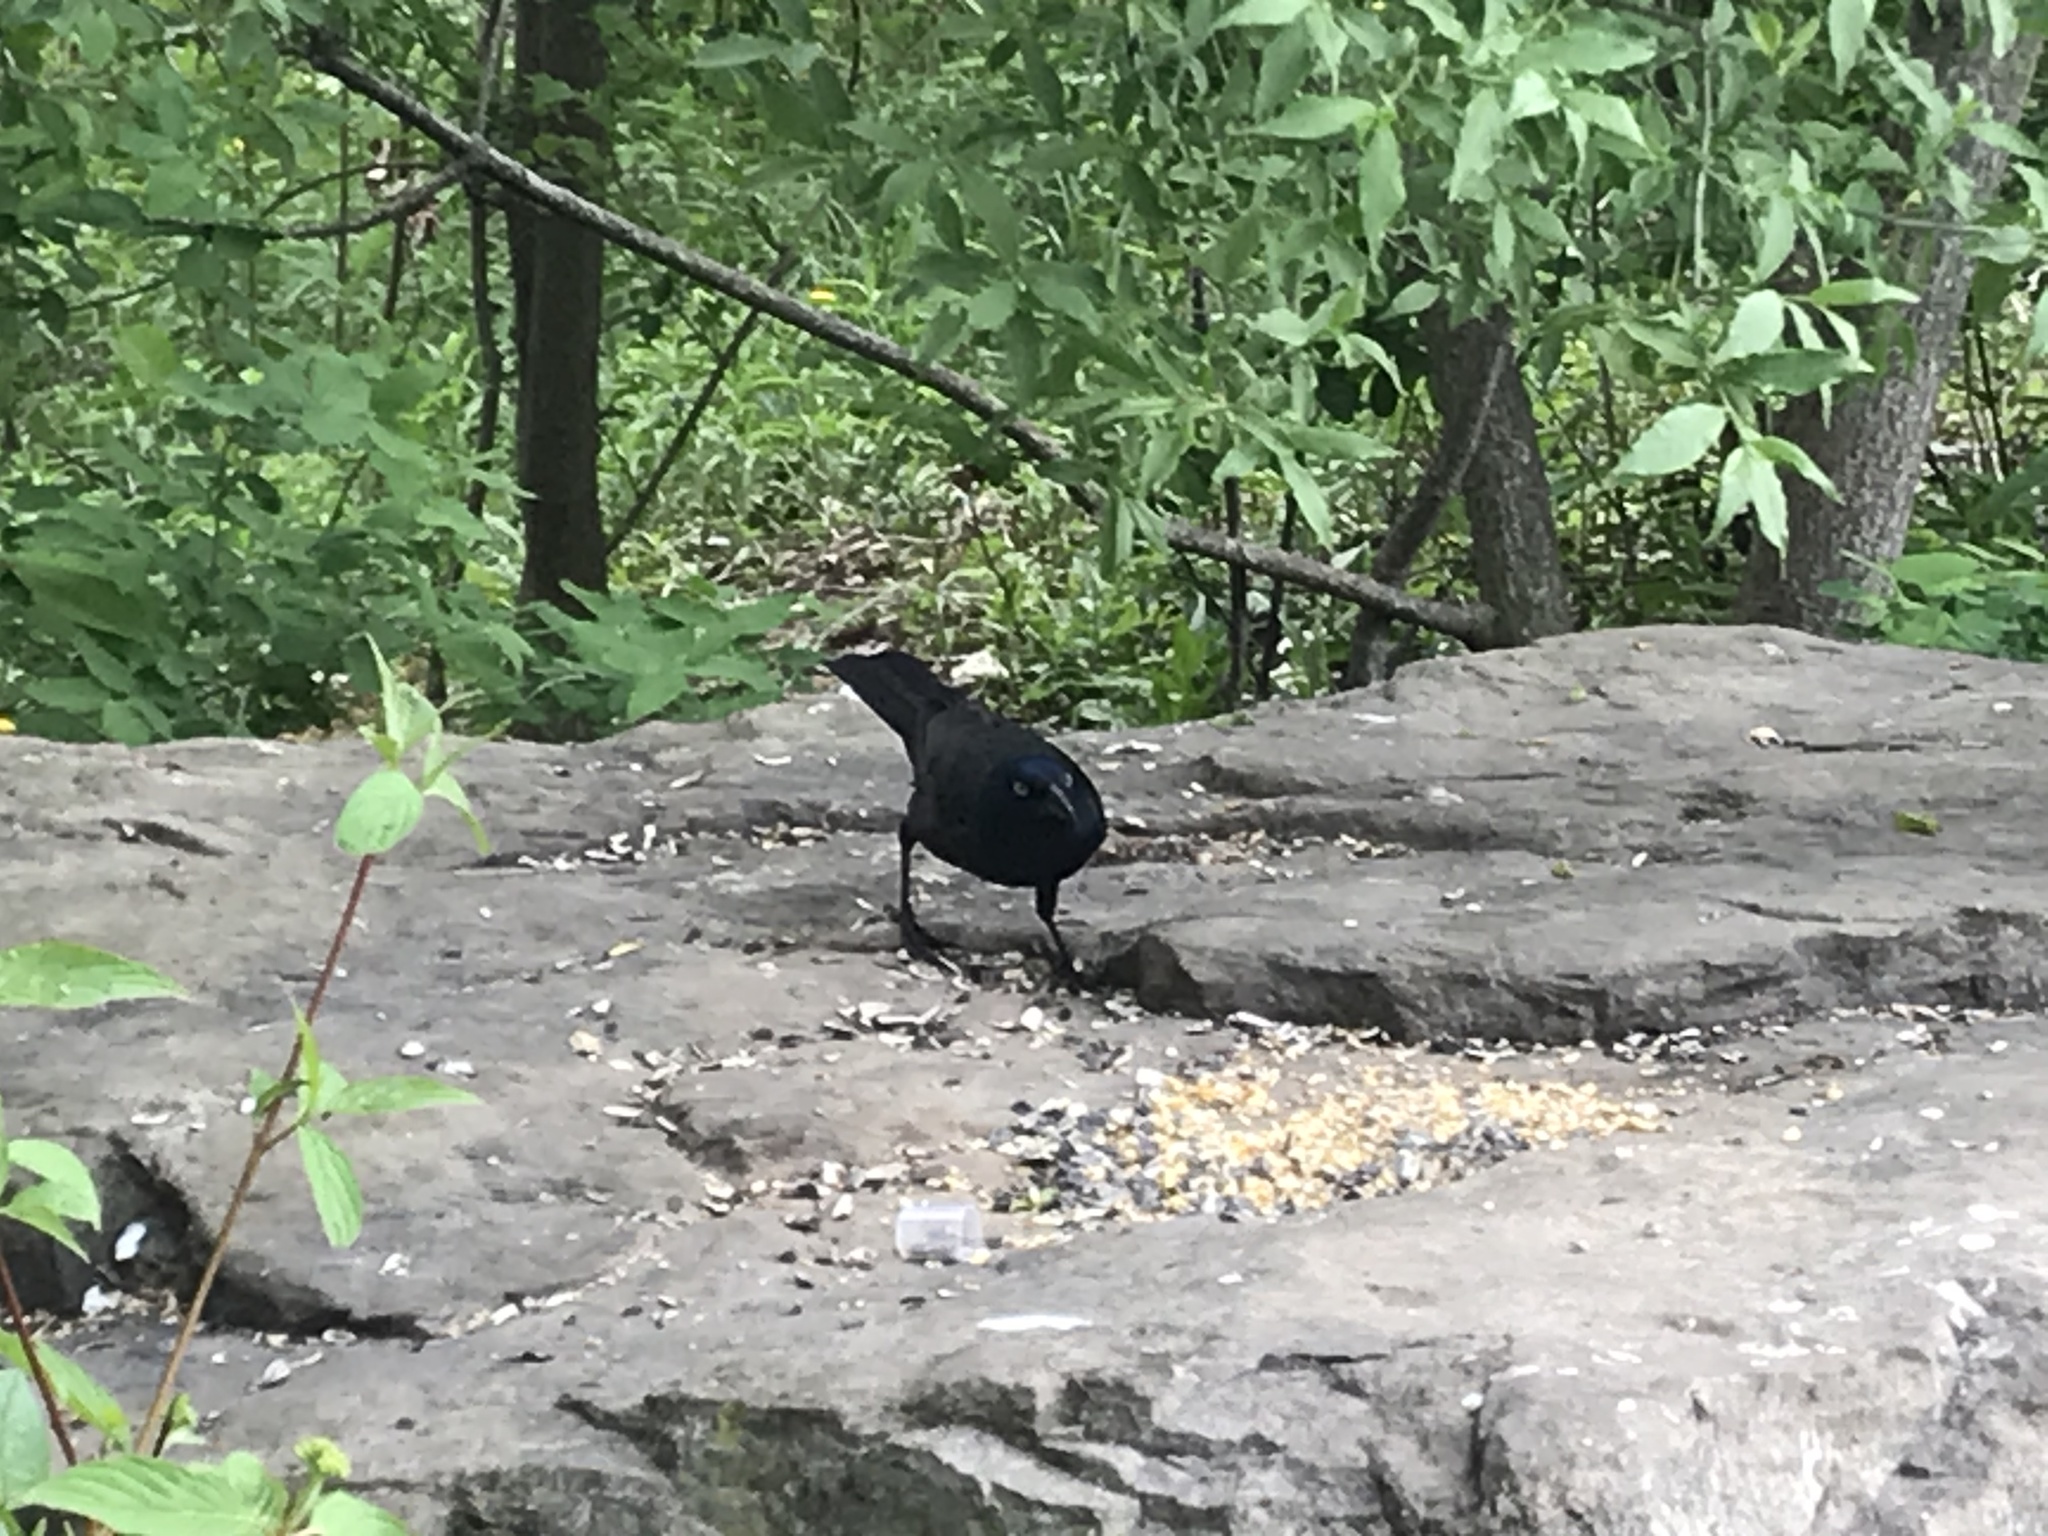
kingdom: Animalia
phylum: Chordata
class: Aves
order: Passeriformes
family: Icteridae
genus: Quiscalus
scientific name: Quiscalus quiscula
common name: Common grackle
